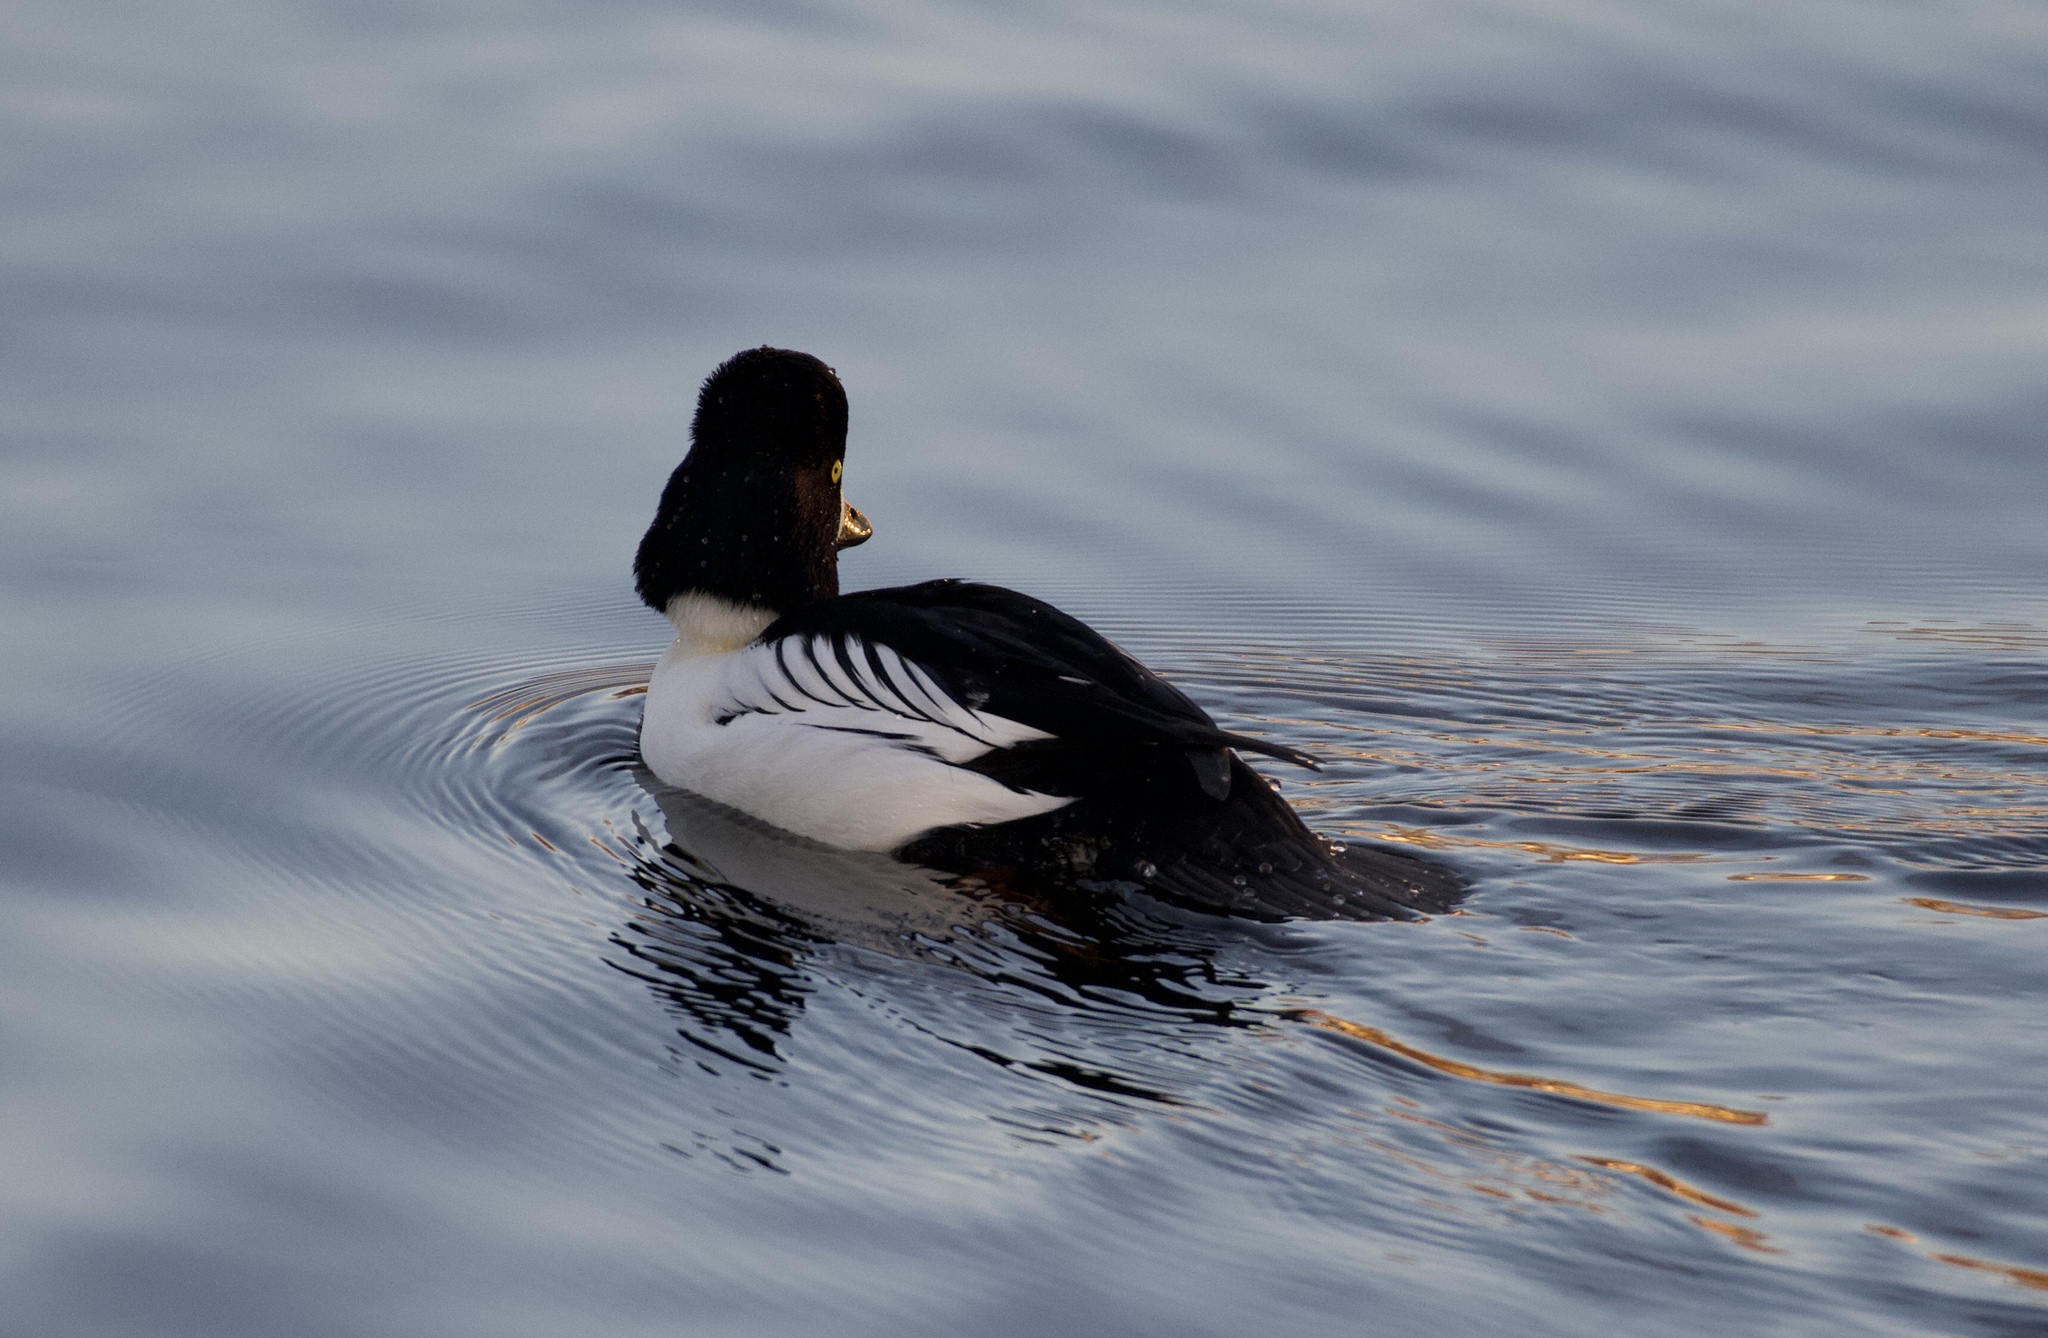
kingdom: Animalia
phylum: Chordata
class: Aves
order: Anseriformes
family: Anatidae
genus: Bucephala
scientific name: Bucephala clangula
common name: Common goldeneye
